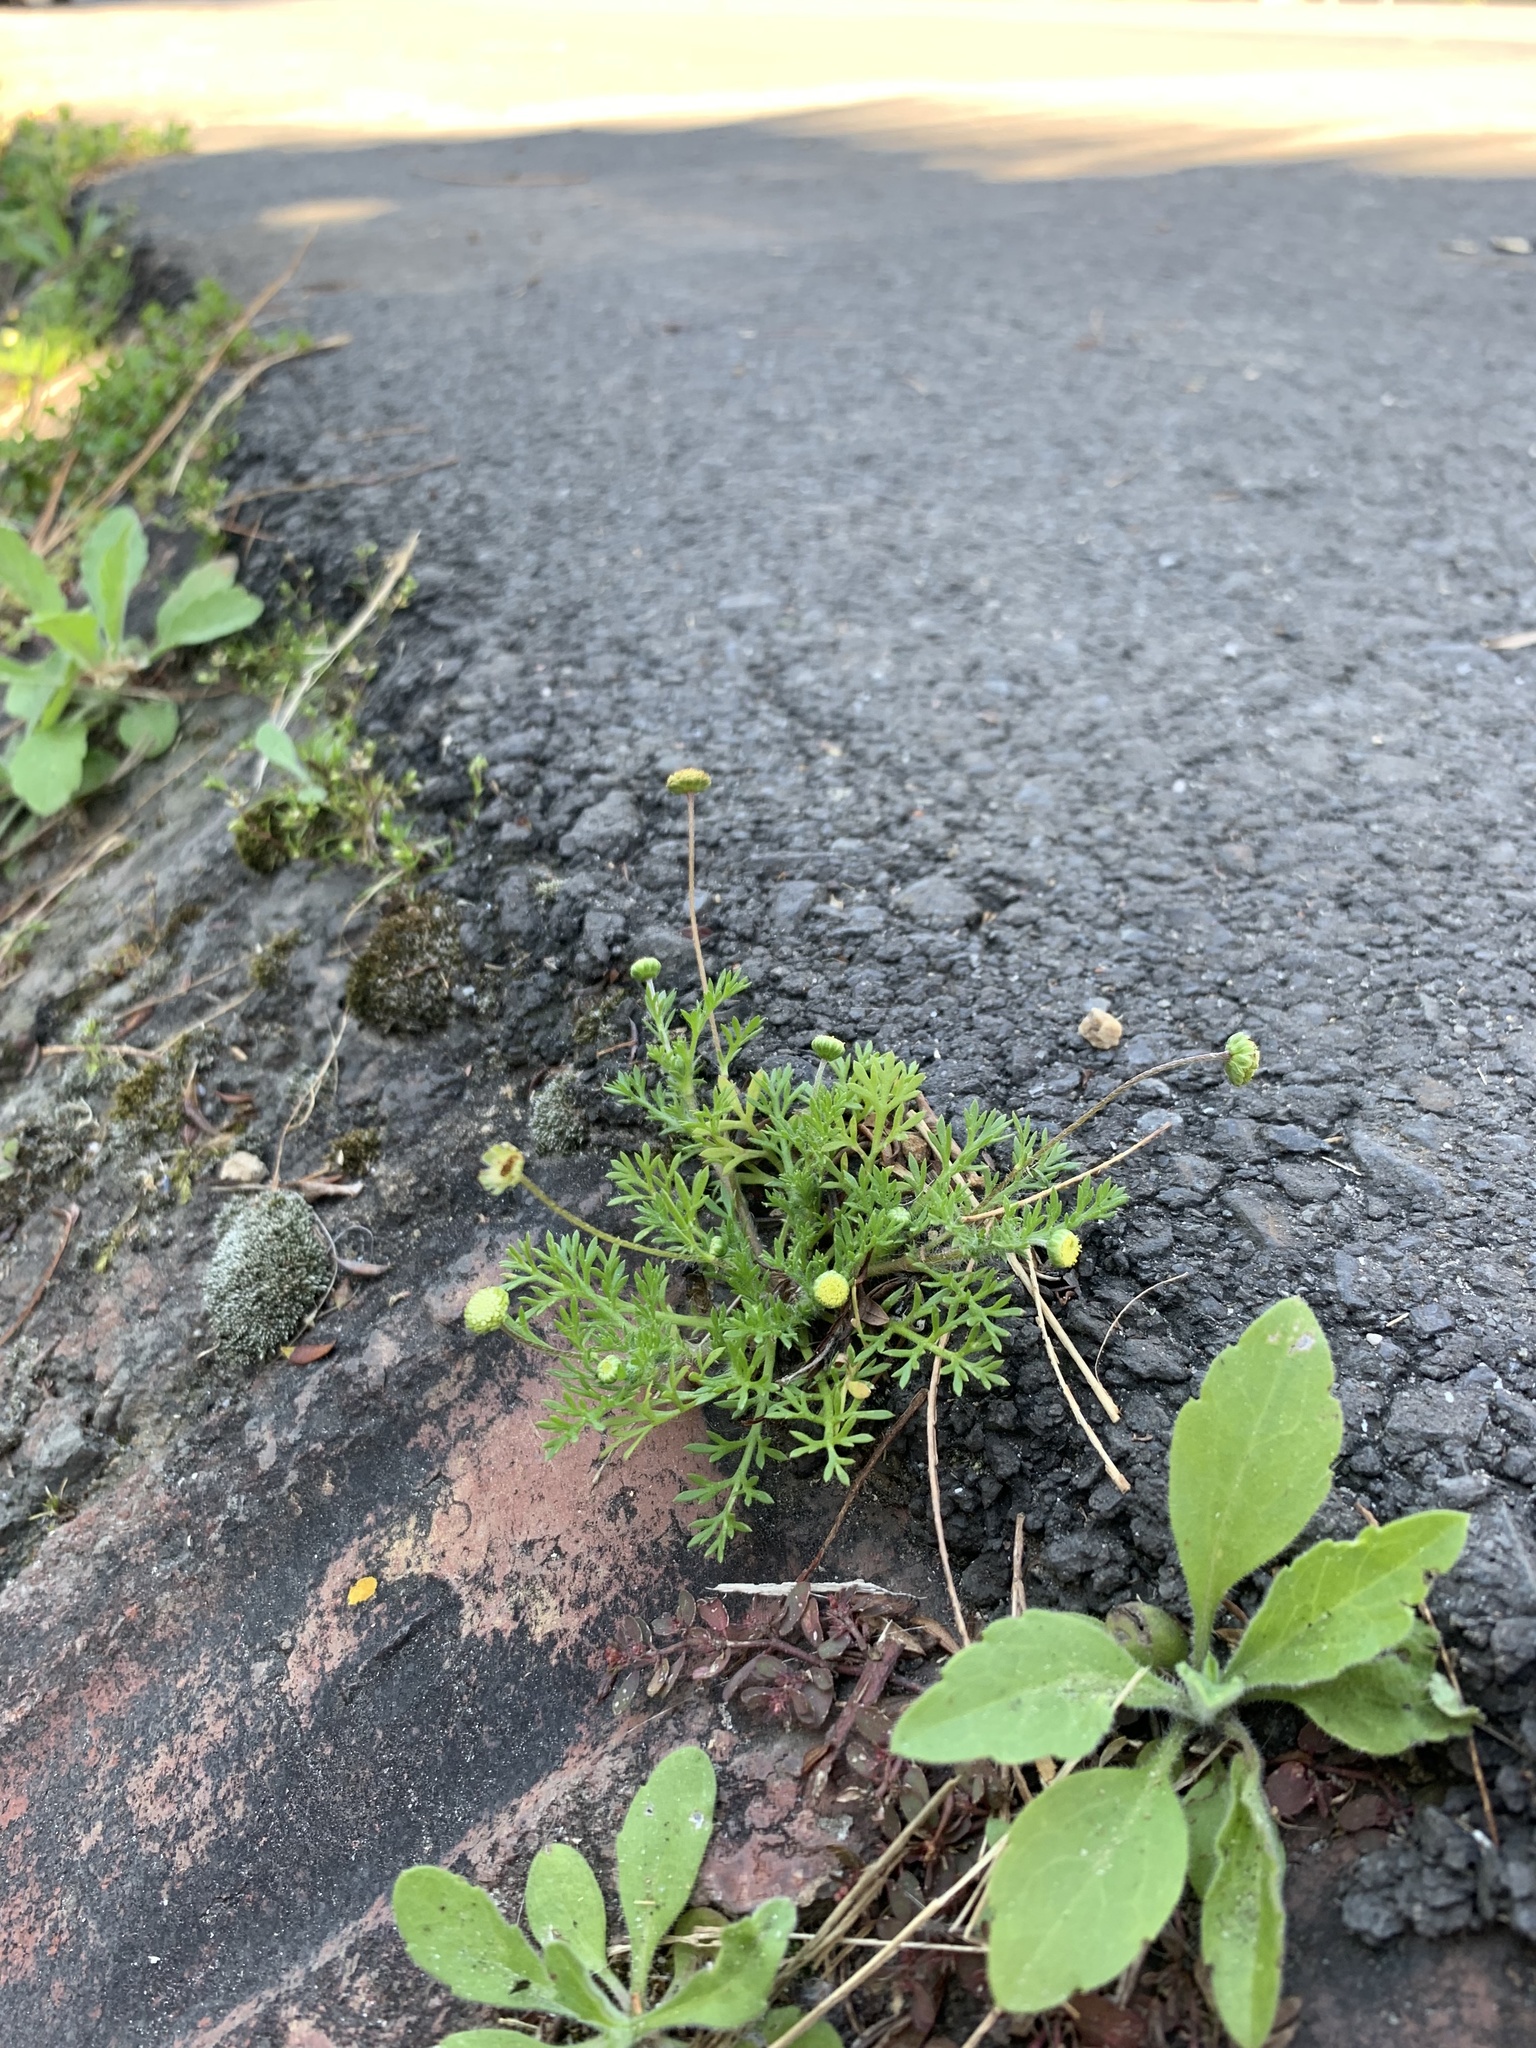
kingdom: Plantae
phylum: Tracheophyta
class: Magnoliopsida
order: Asterales
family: Asteraceae
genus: Cotula
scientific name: Cotula australis
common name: Australian waterbuttons
